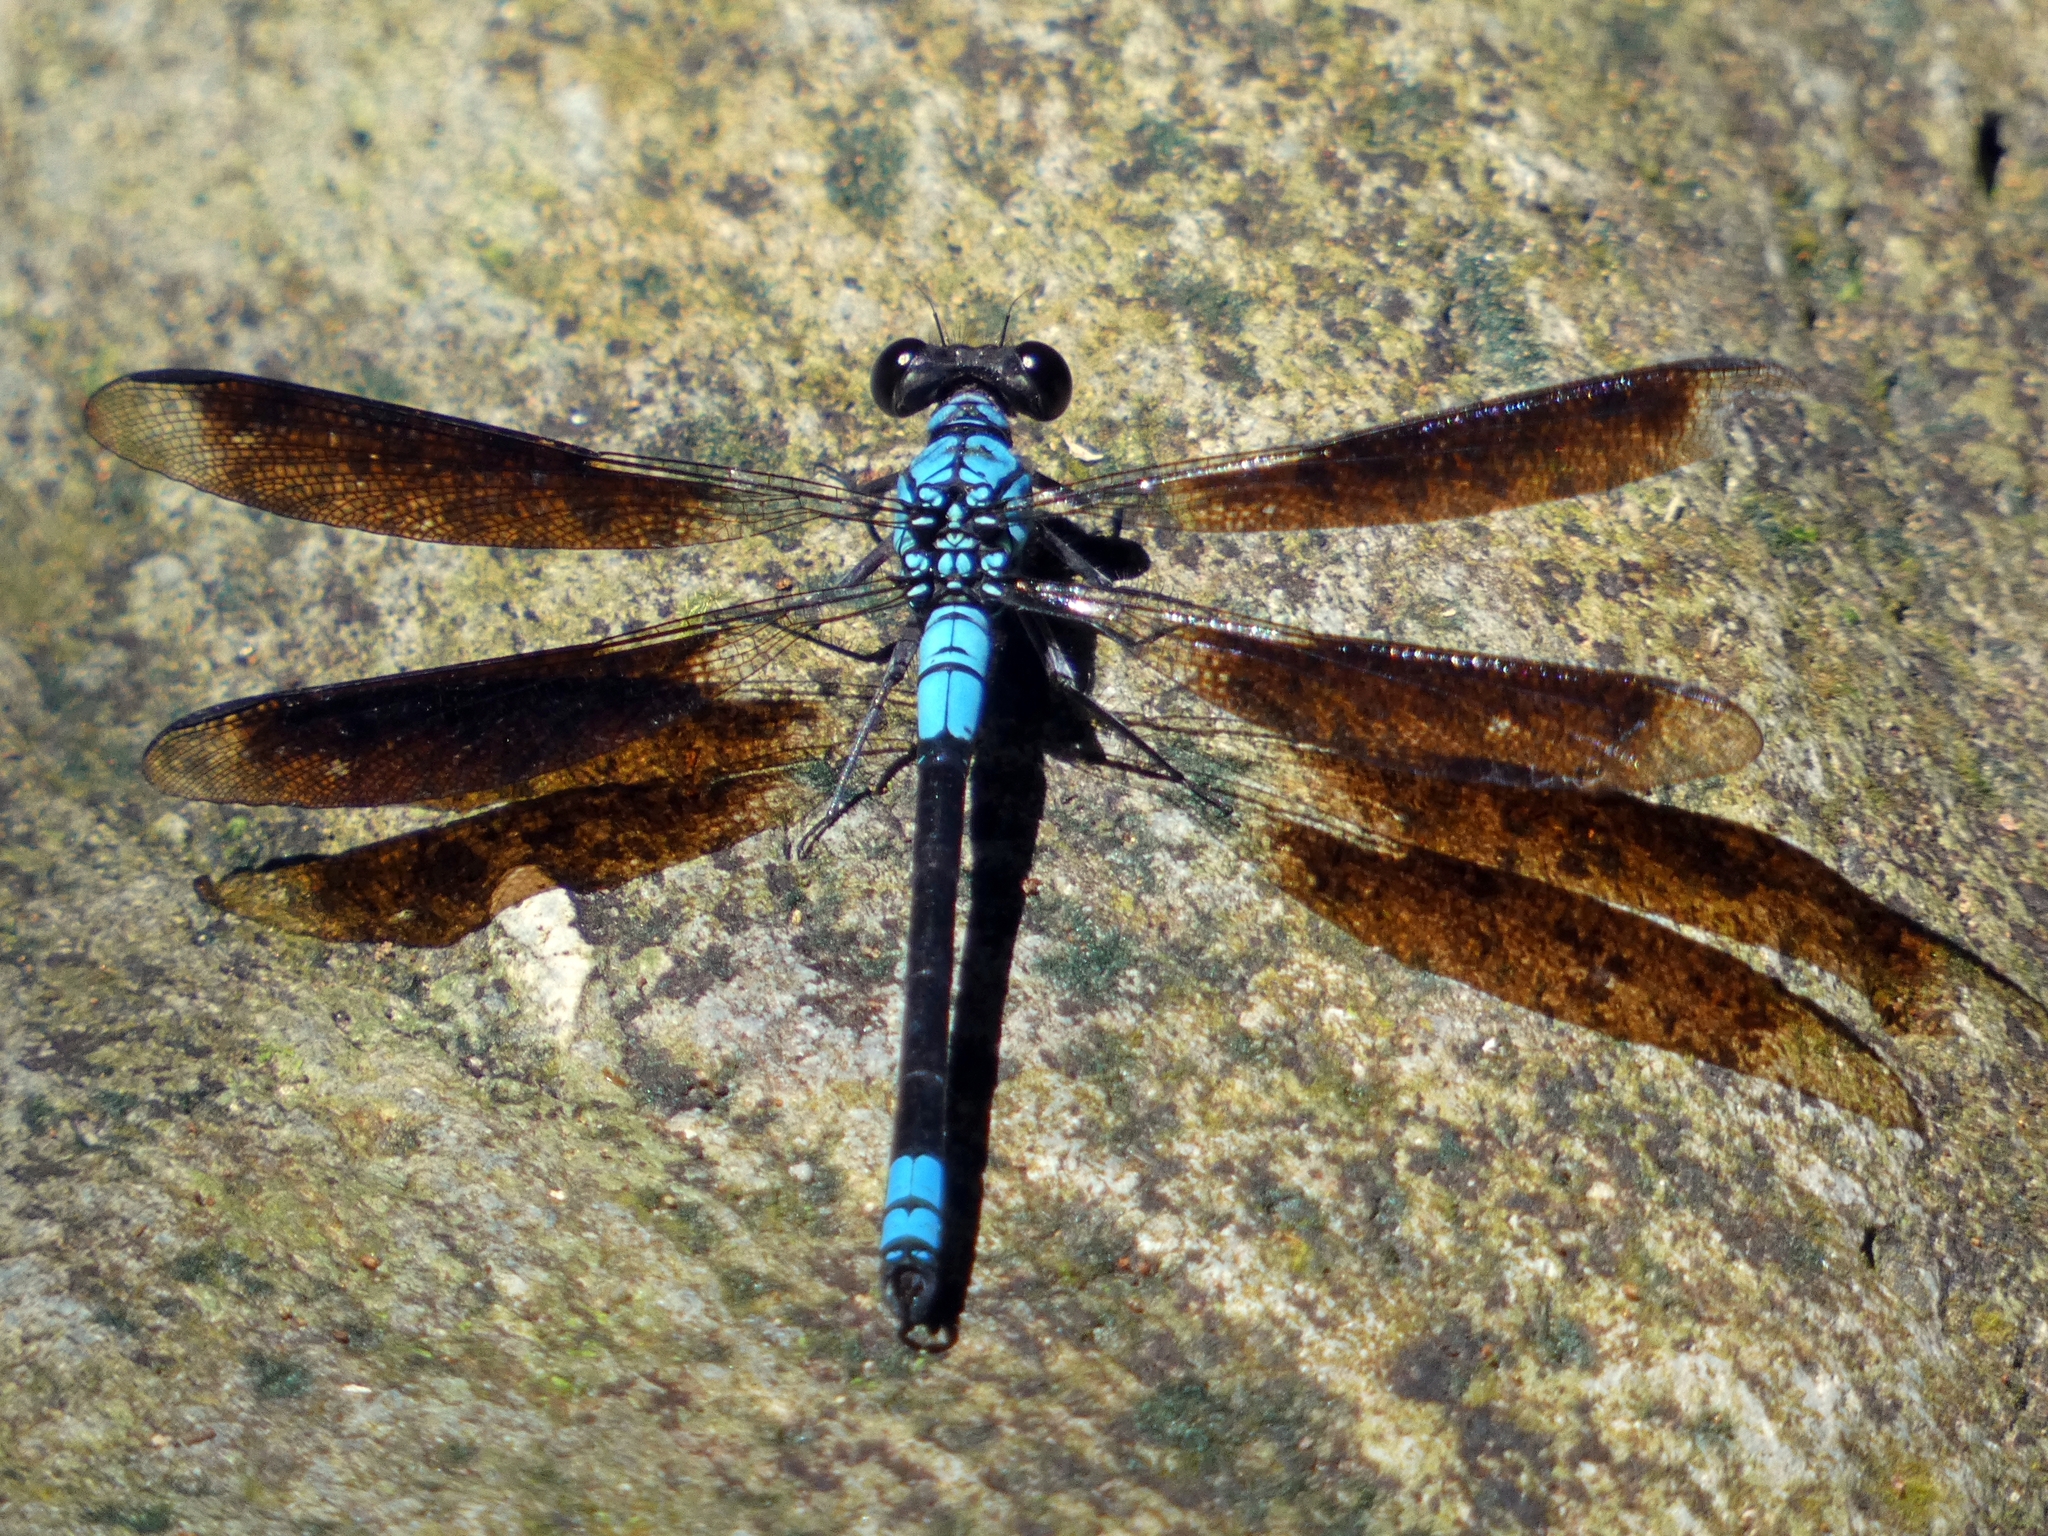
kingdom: Animalia
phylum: Arthropoda
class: Insecta
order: Odonata
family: Lestoideidae
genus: Diphlebia
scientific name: Diphlebia euphoeoides
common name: Tropical rockmaster
